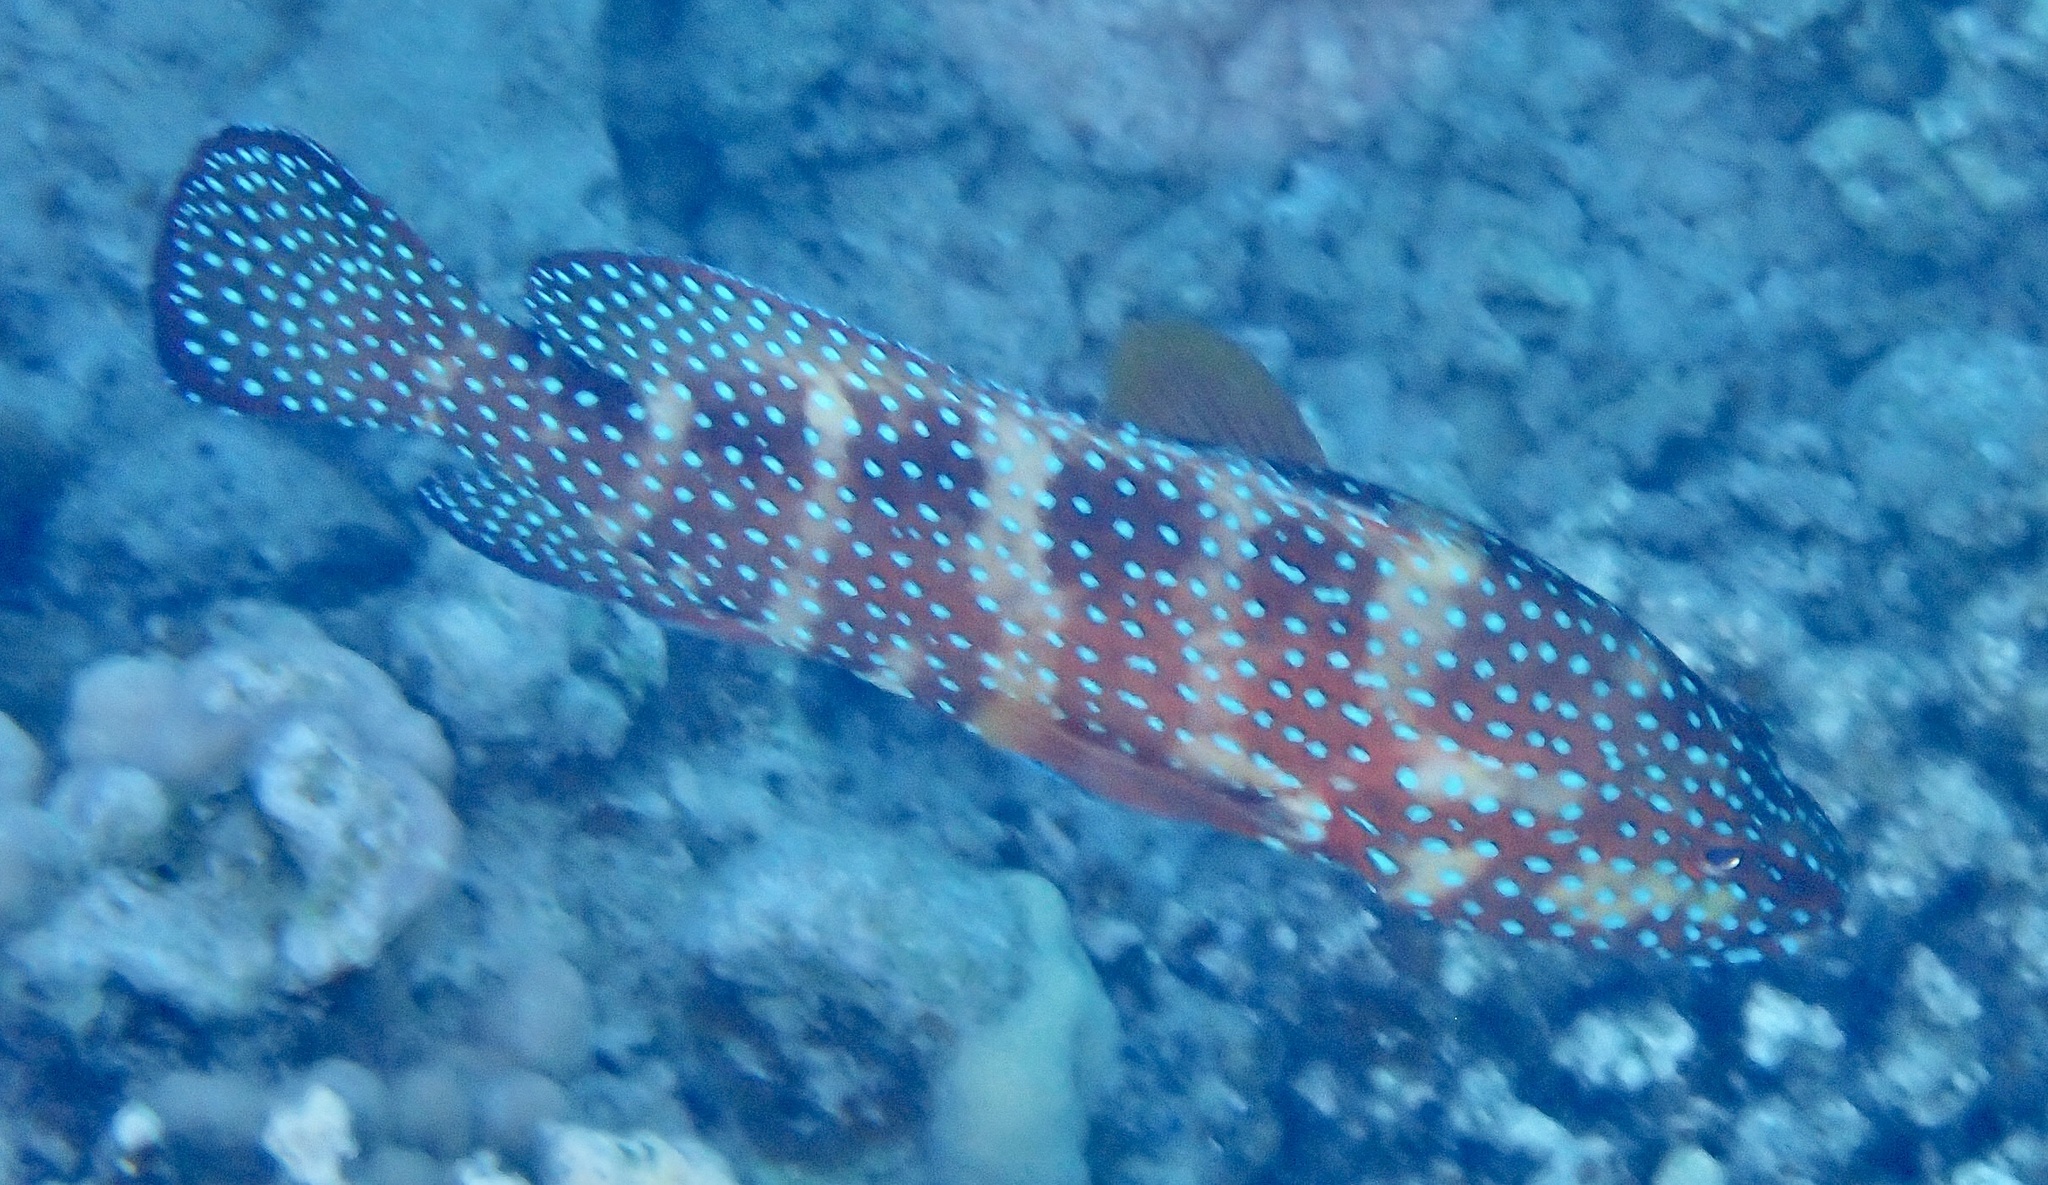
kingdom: Animalia
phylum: Chordata
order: Perciformes
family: Serranidae
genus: Cephalopholis
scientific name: Cephalopholis miniata
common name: Coral hind
